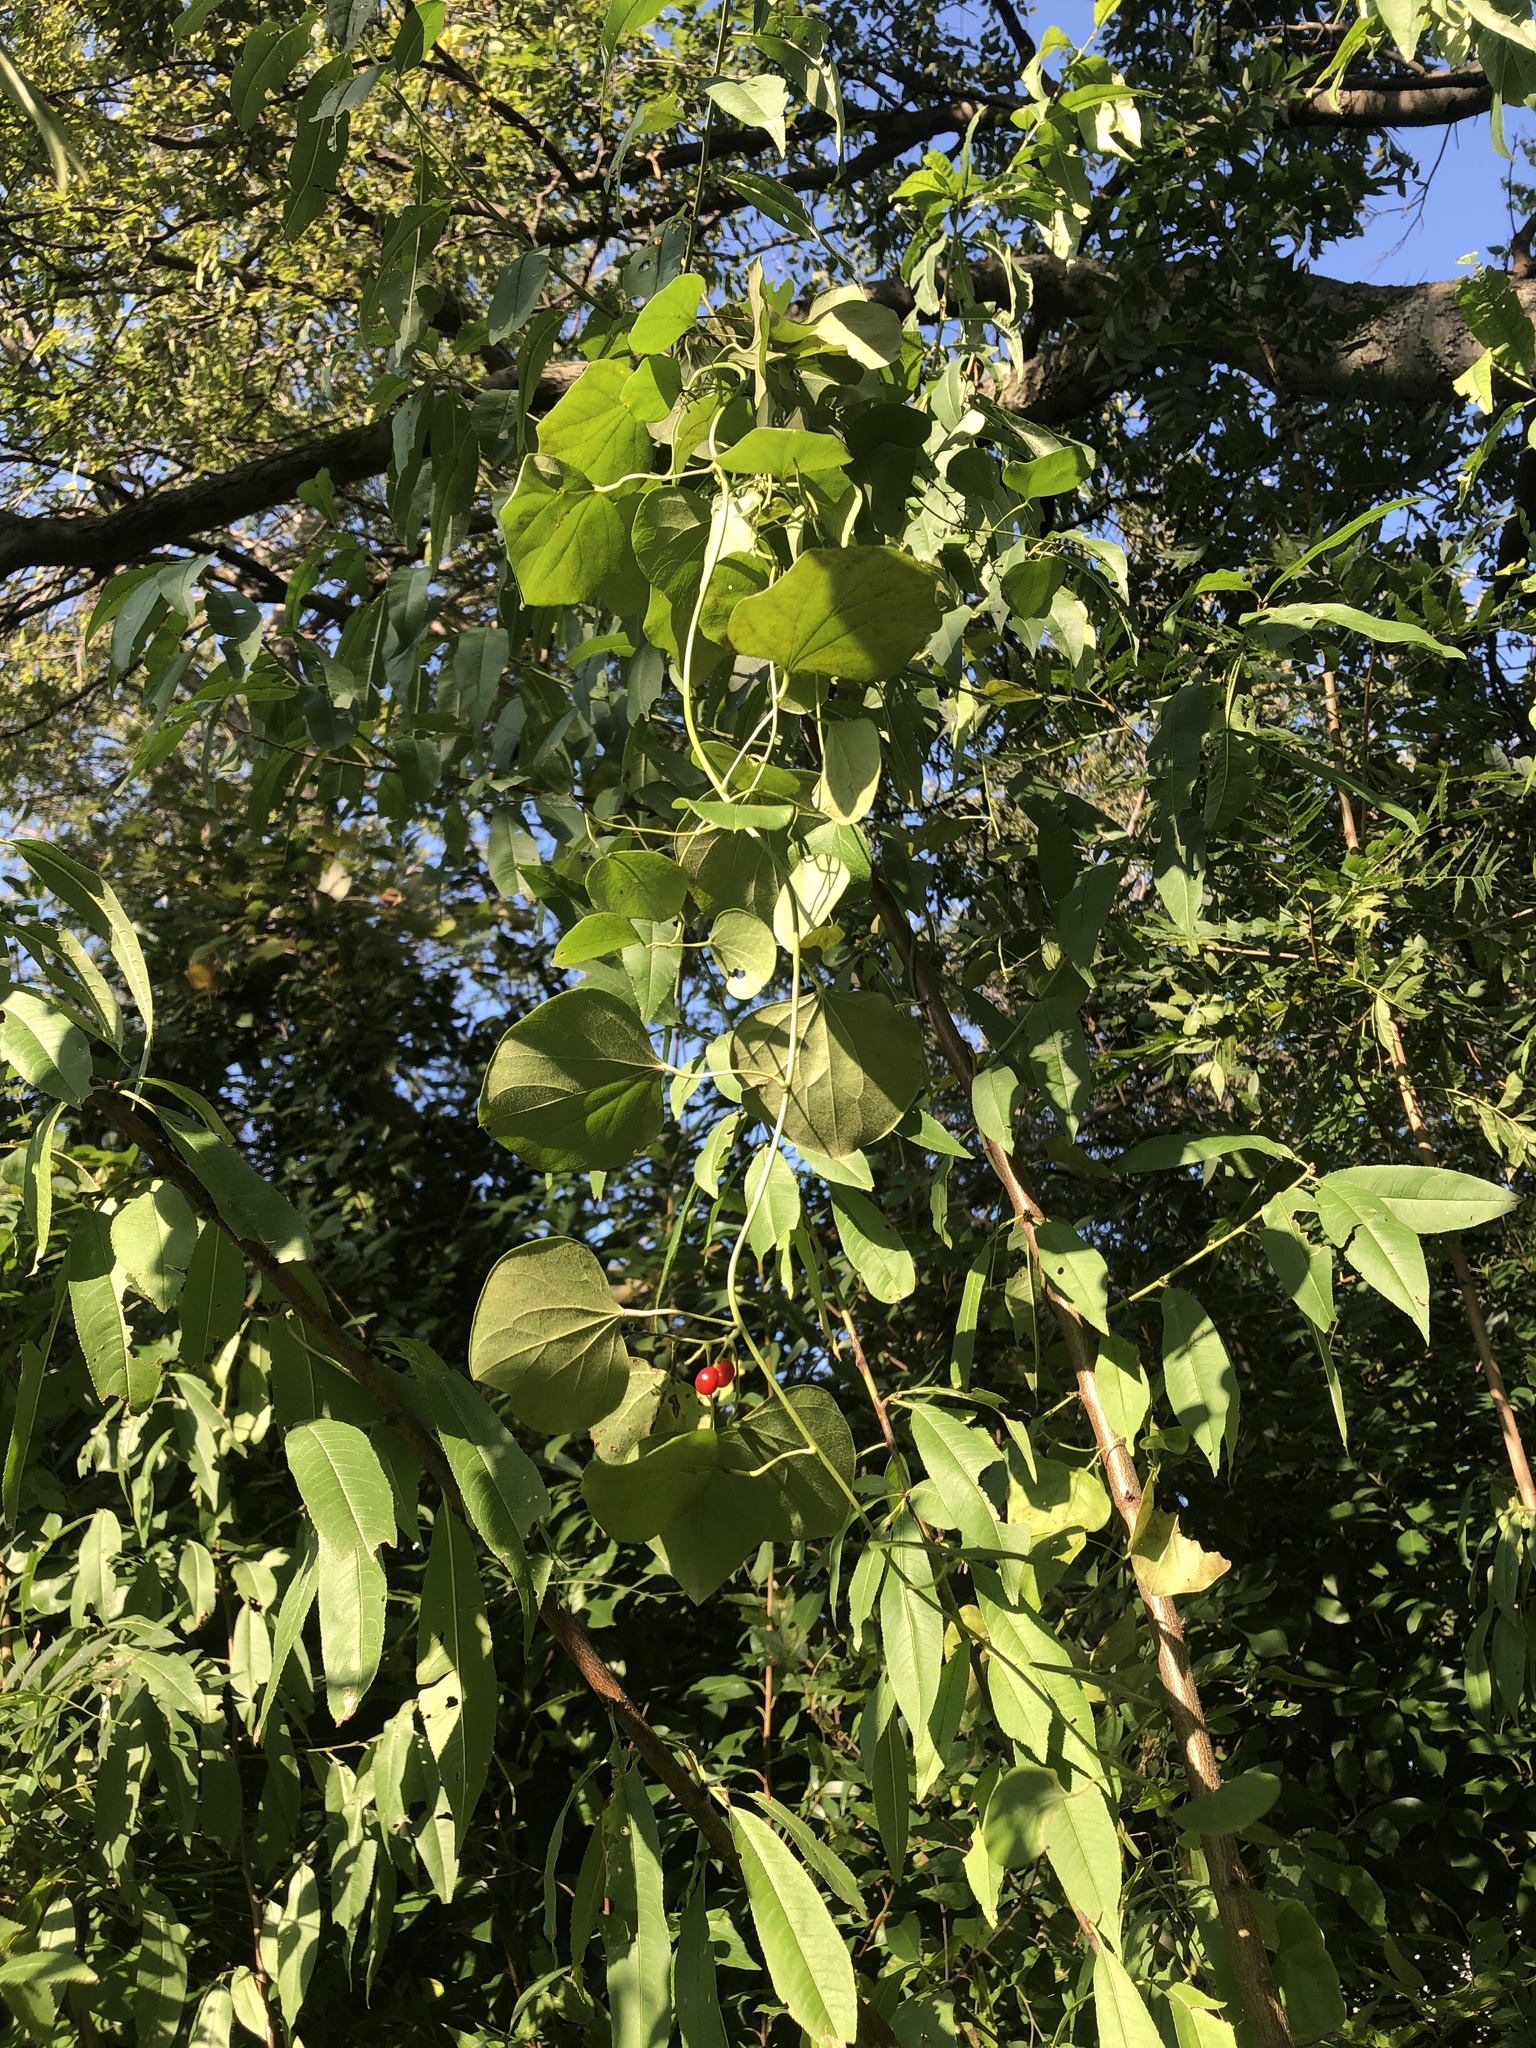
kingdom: Plantae
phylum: Tracheophyta
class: Magnoliopsida
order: Ranunculales
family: Menispermaceae
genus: Cocculus
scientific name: Cocculus carolinus
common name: Carolina moonseed
